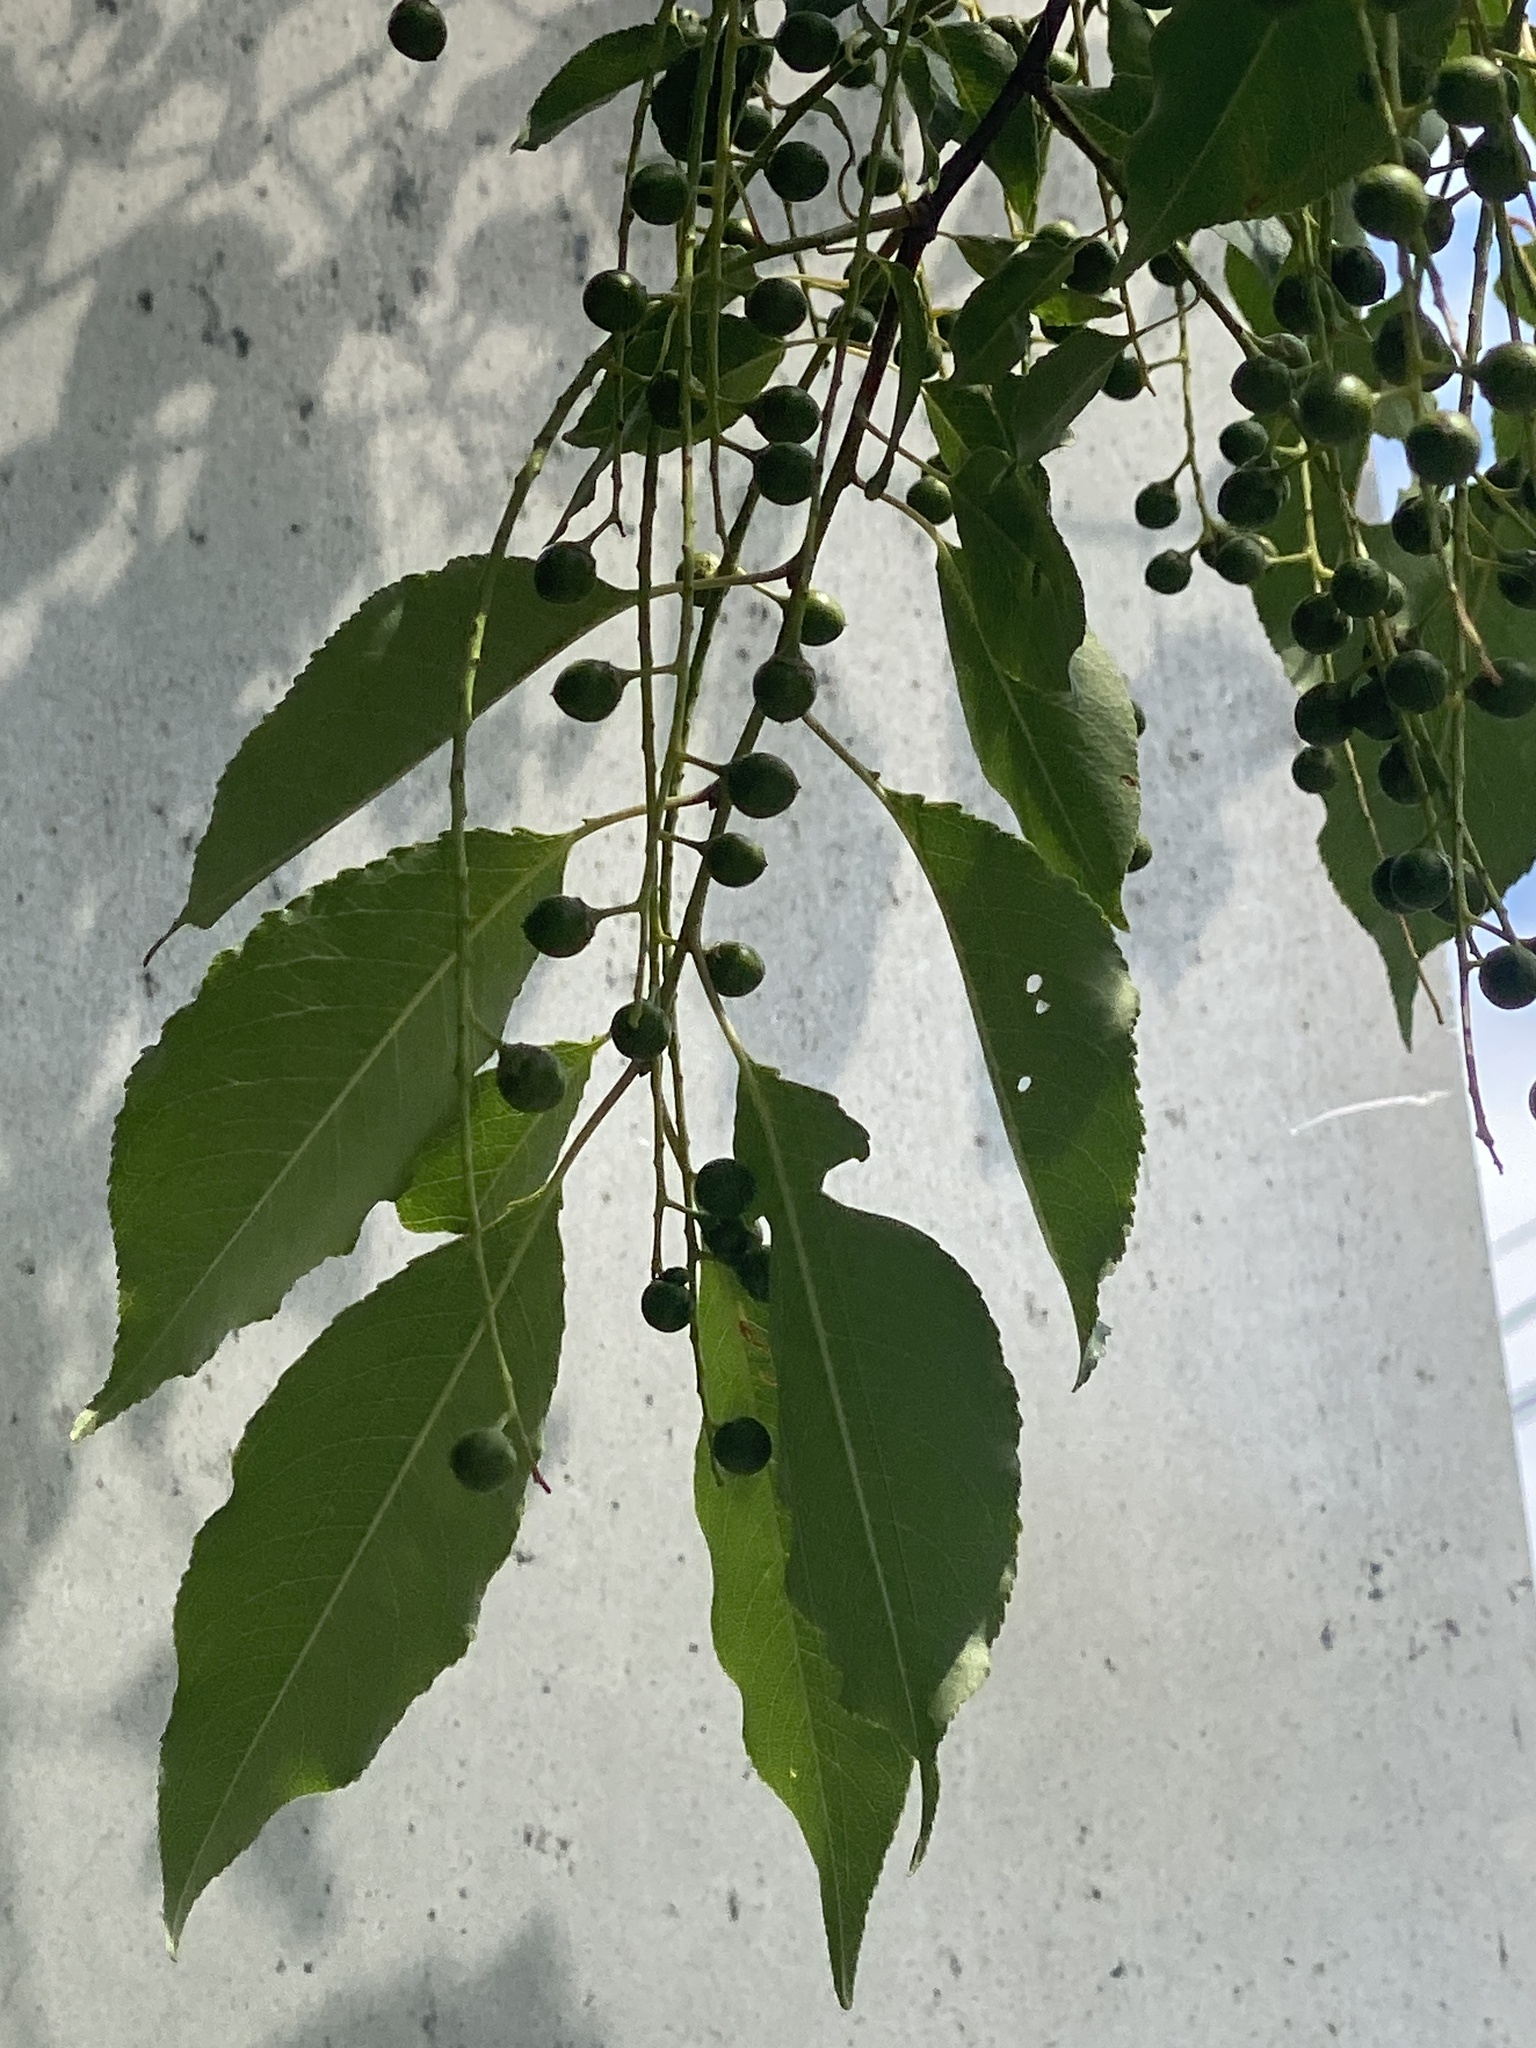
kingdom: Plantae
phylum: Tracheophyta
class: Magnoliopsida
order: Rosales
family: Rosaceae
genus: Prunus
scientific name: Prunus serotina
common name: Black cherry
